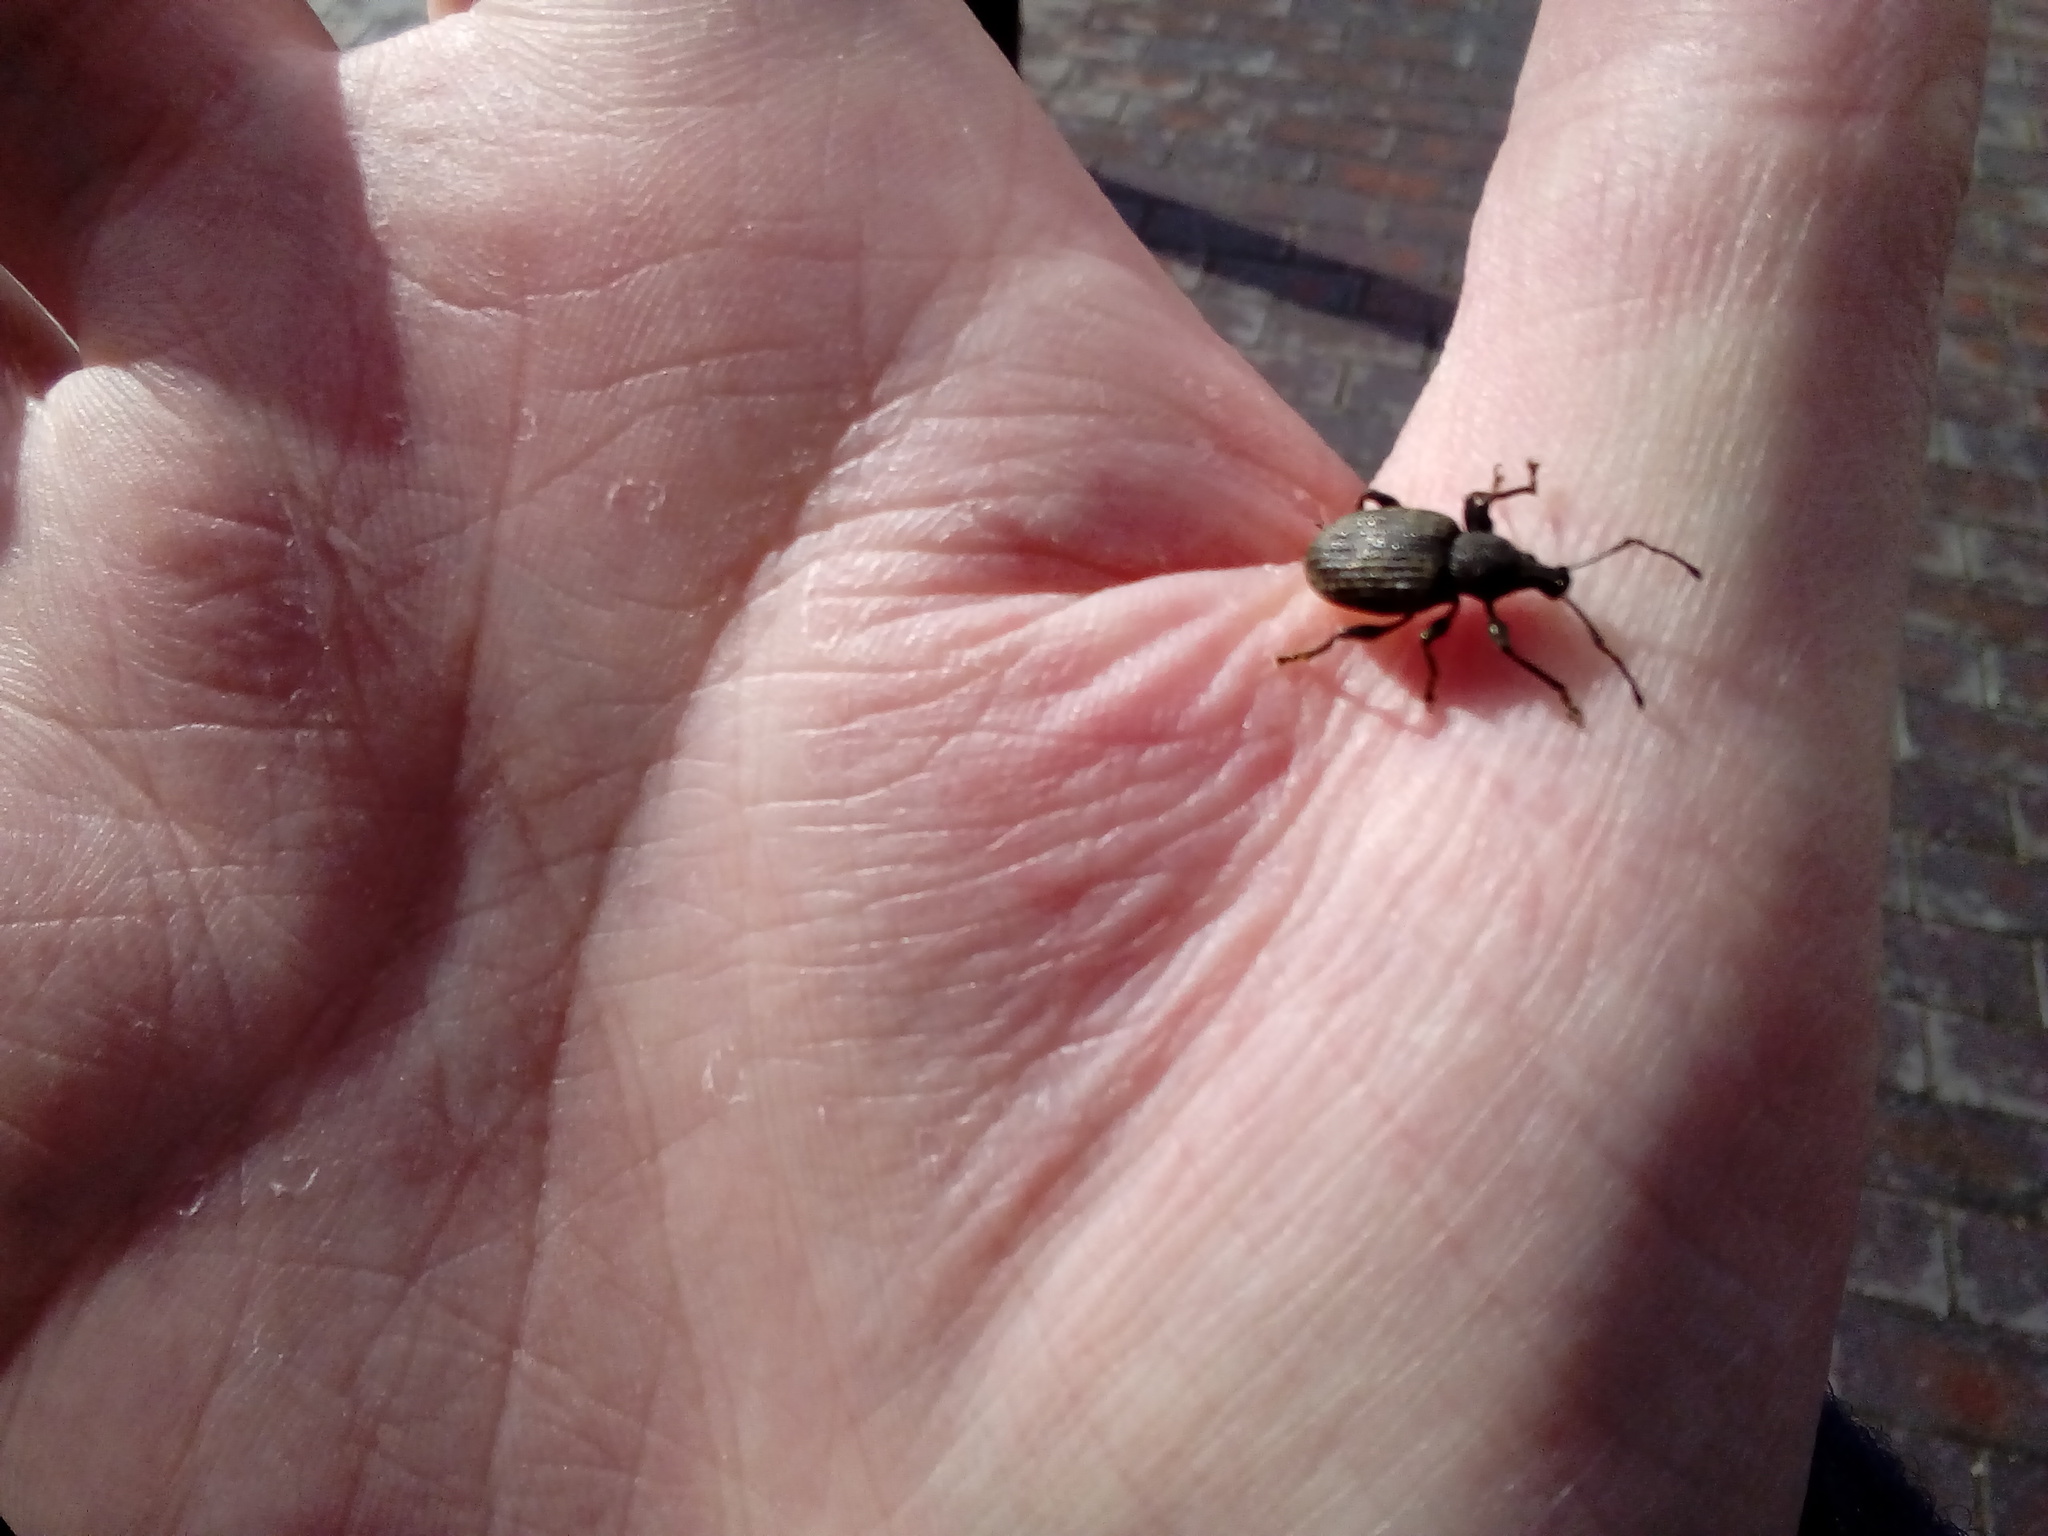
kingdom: Animalia
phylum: Arthropoda
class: Insecta
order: Coleoptera
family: Curculionidae
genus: Otiorhynchus
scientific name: Otiorhynchus sulcatus
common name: Black vine weevil
